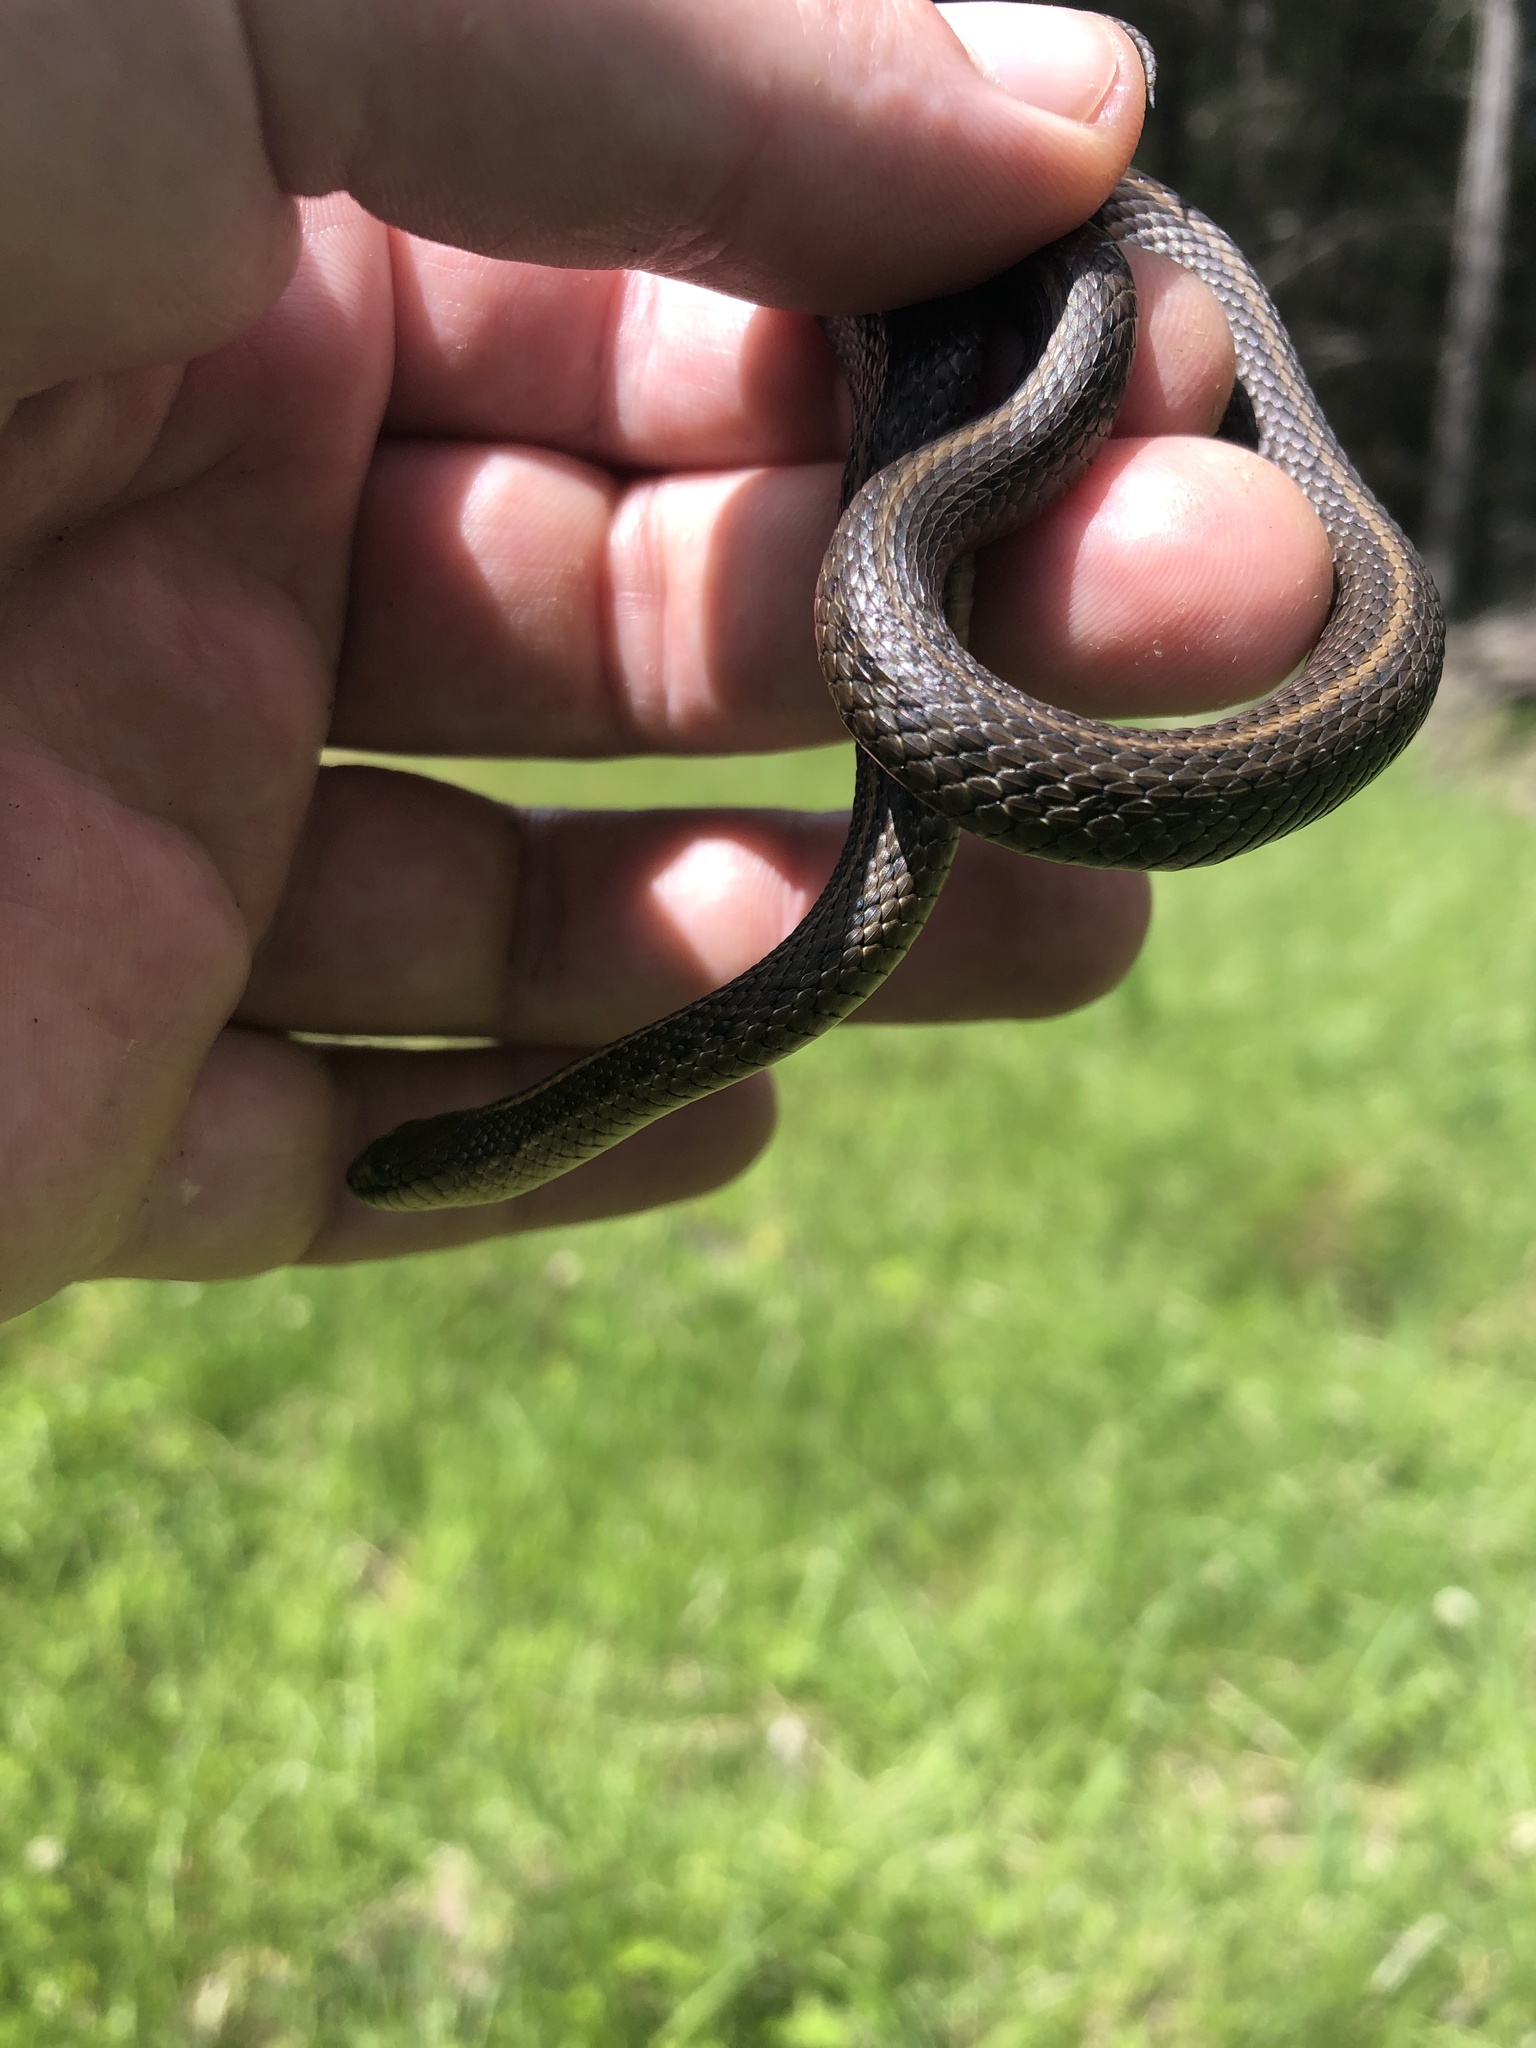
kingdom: Animalia
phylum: Chordata
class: Squamata
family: Colubridae
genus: Thamnophis
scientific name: Thamnophis ordinoides
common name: Northwestern garter snake
